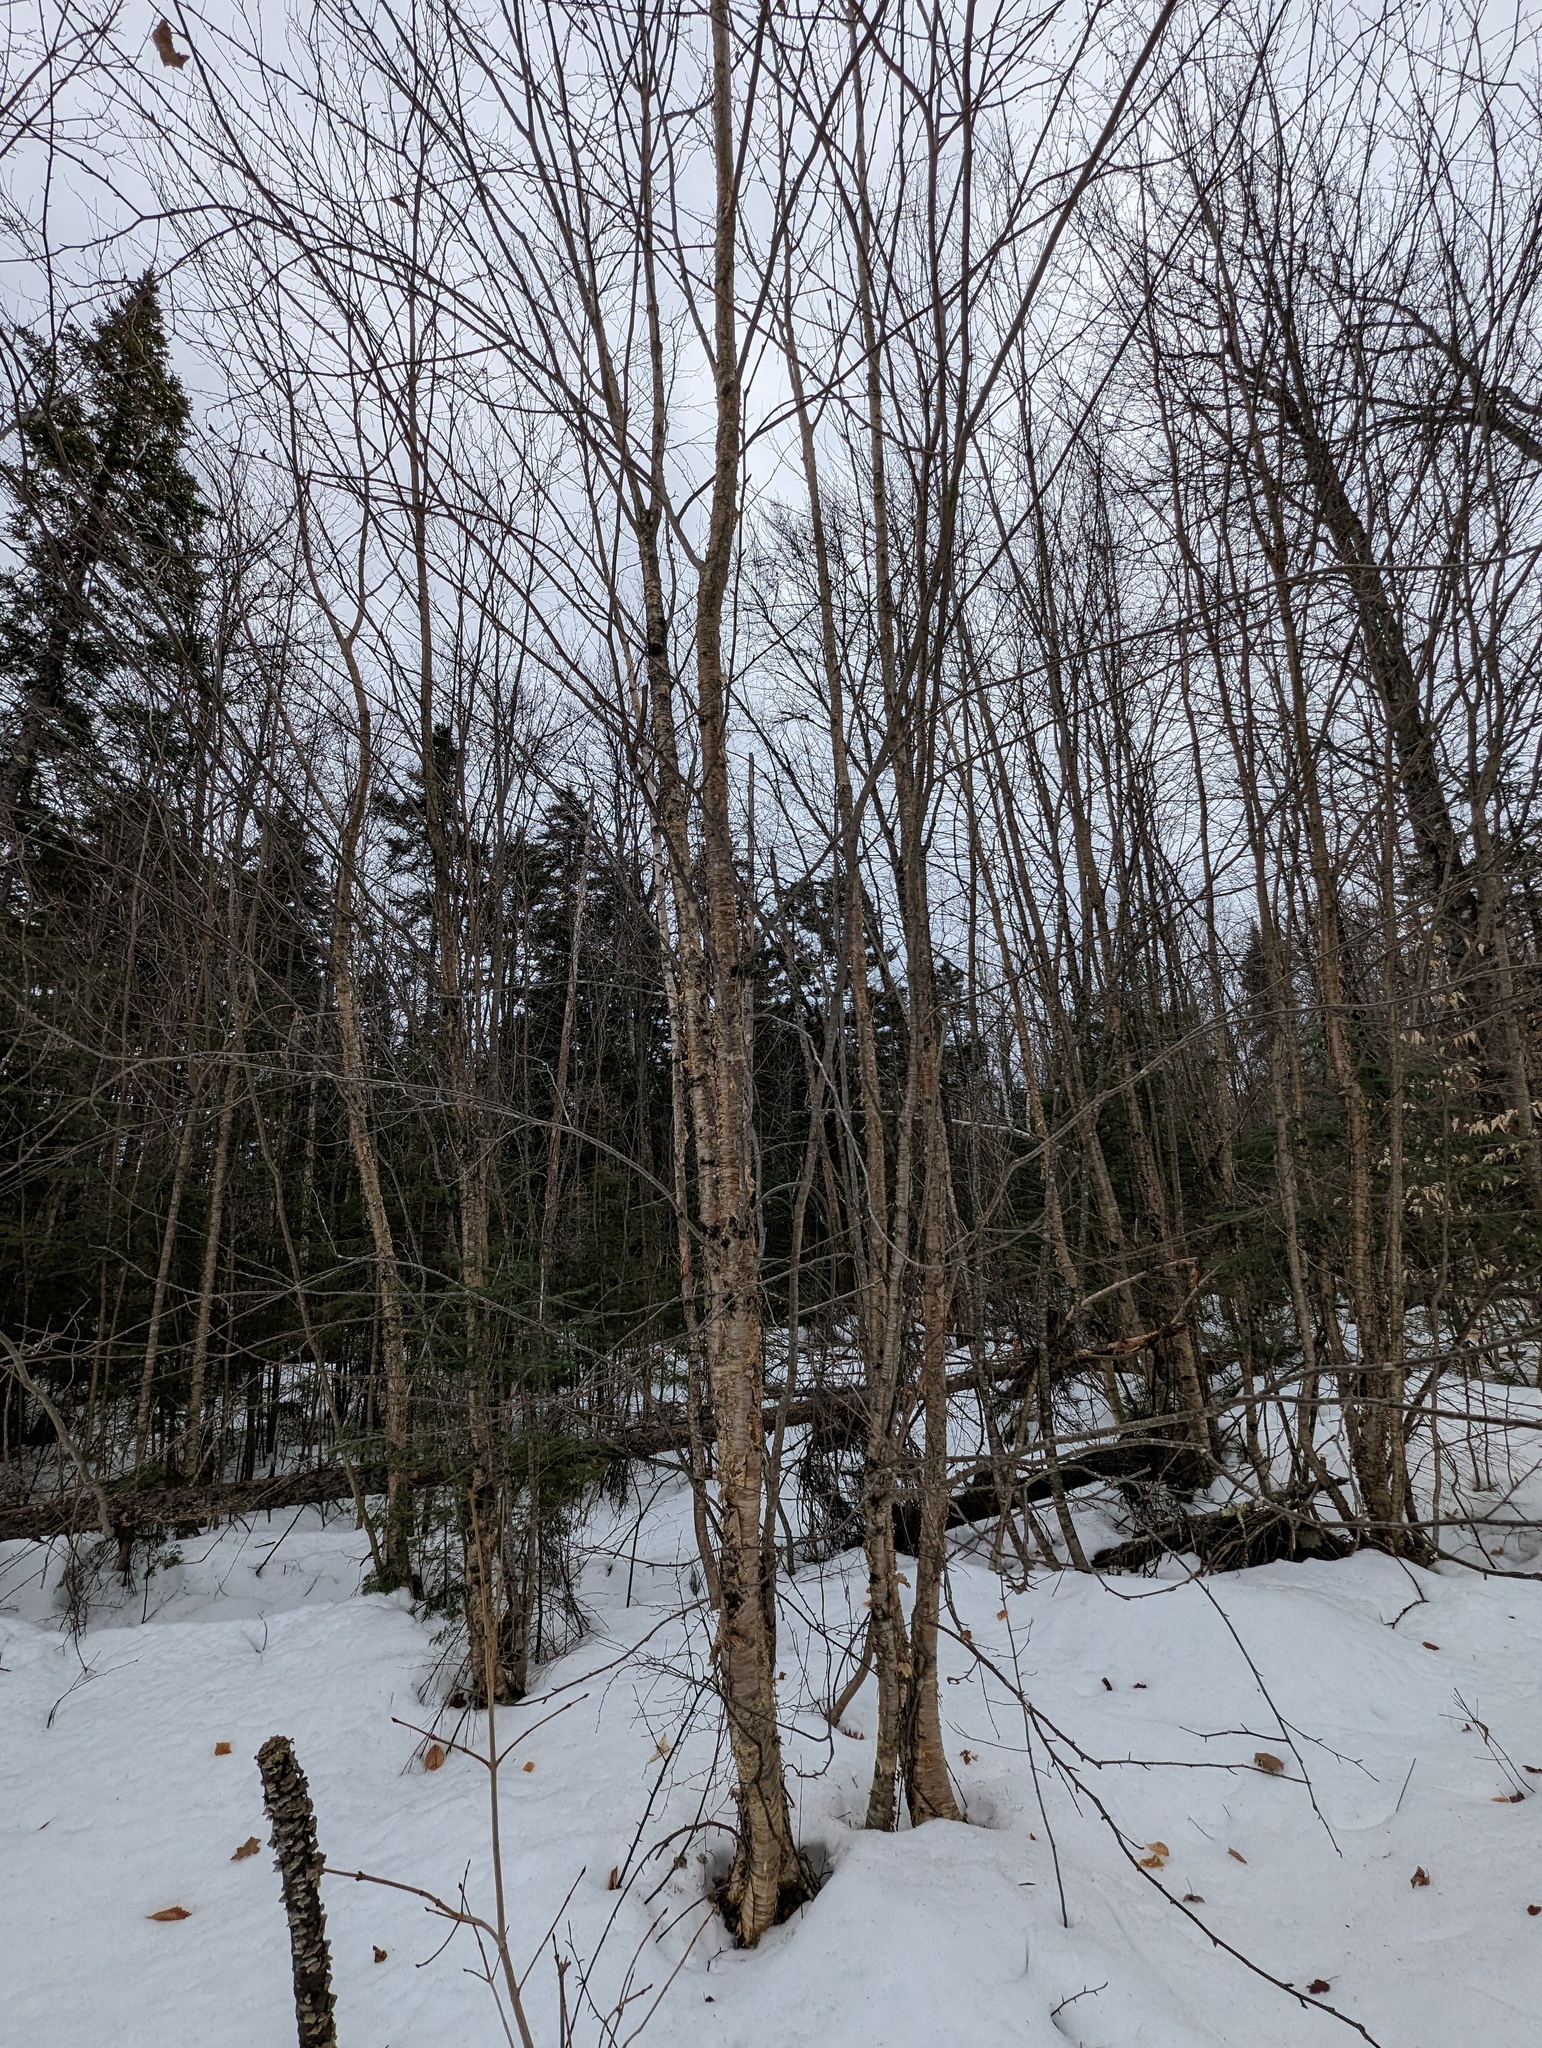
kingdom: Plantae
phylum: Tracheophyta
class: Magnoliopsida
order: Fagales
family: Betulaceae
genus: Betula
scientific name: Betula alleghaniensis
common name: Yellow birch
